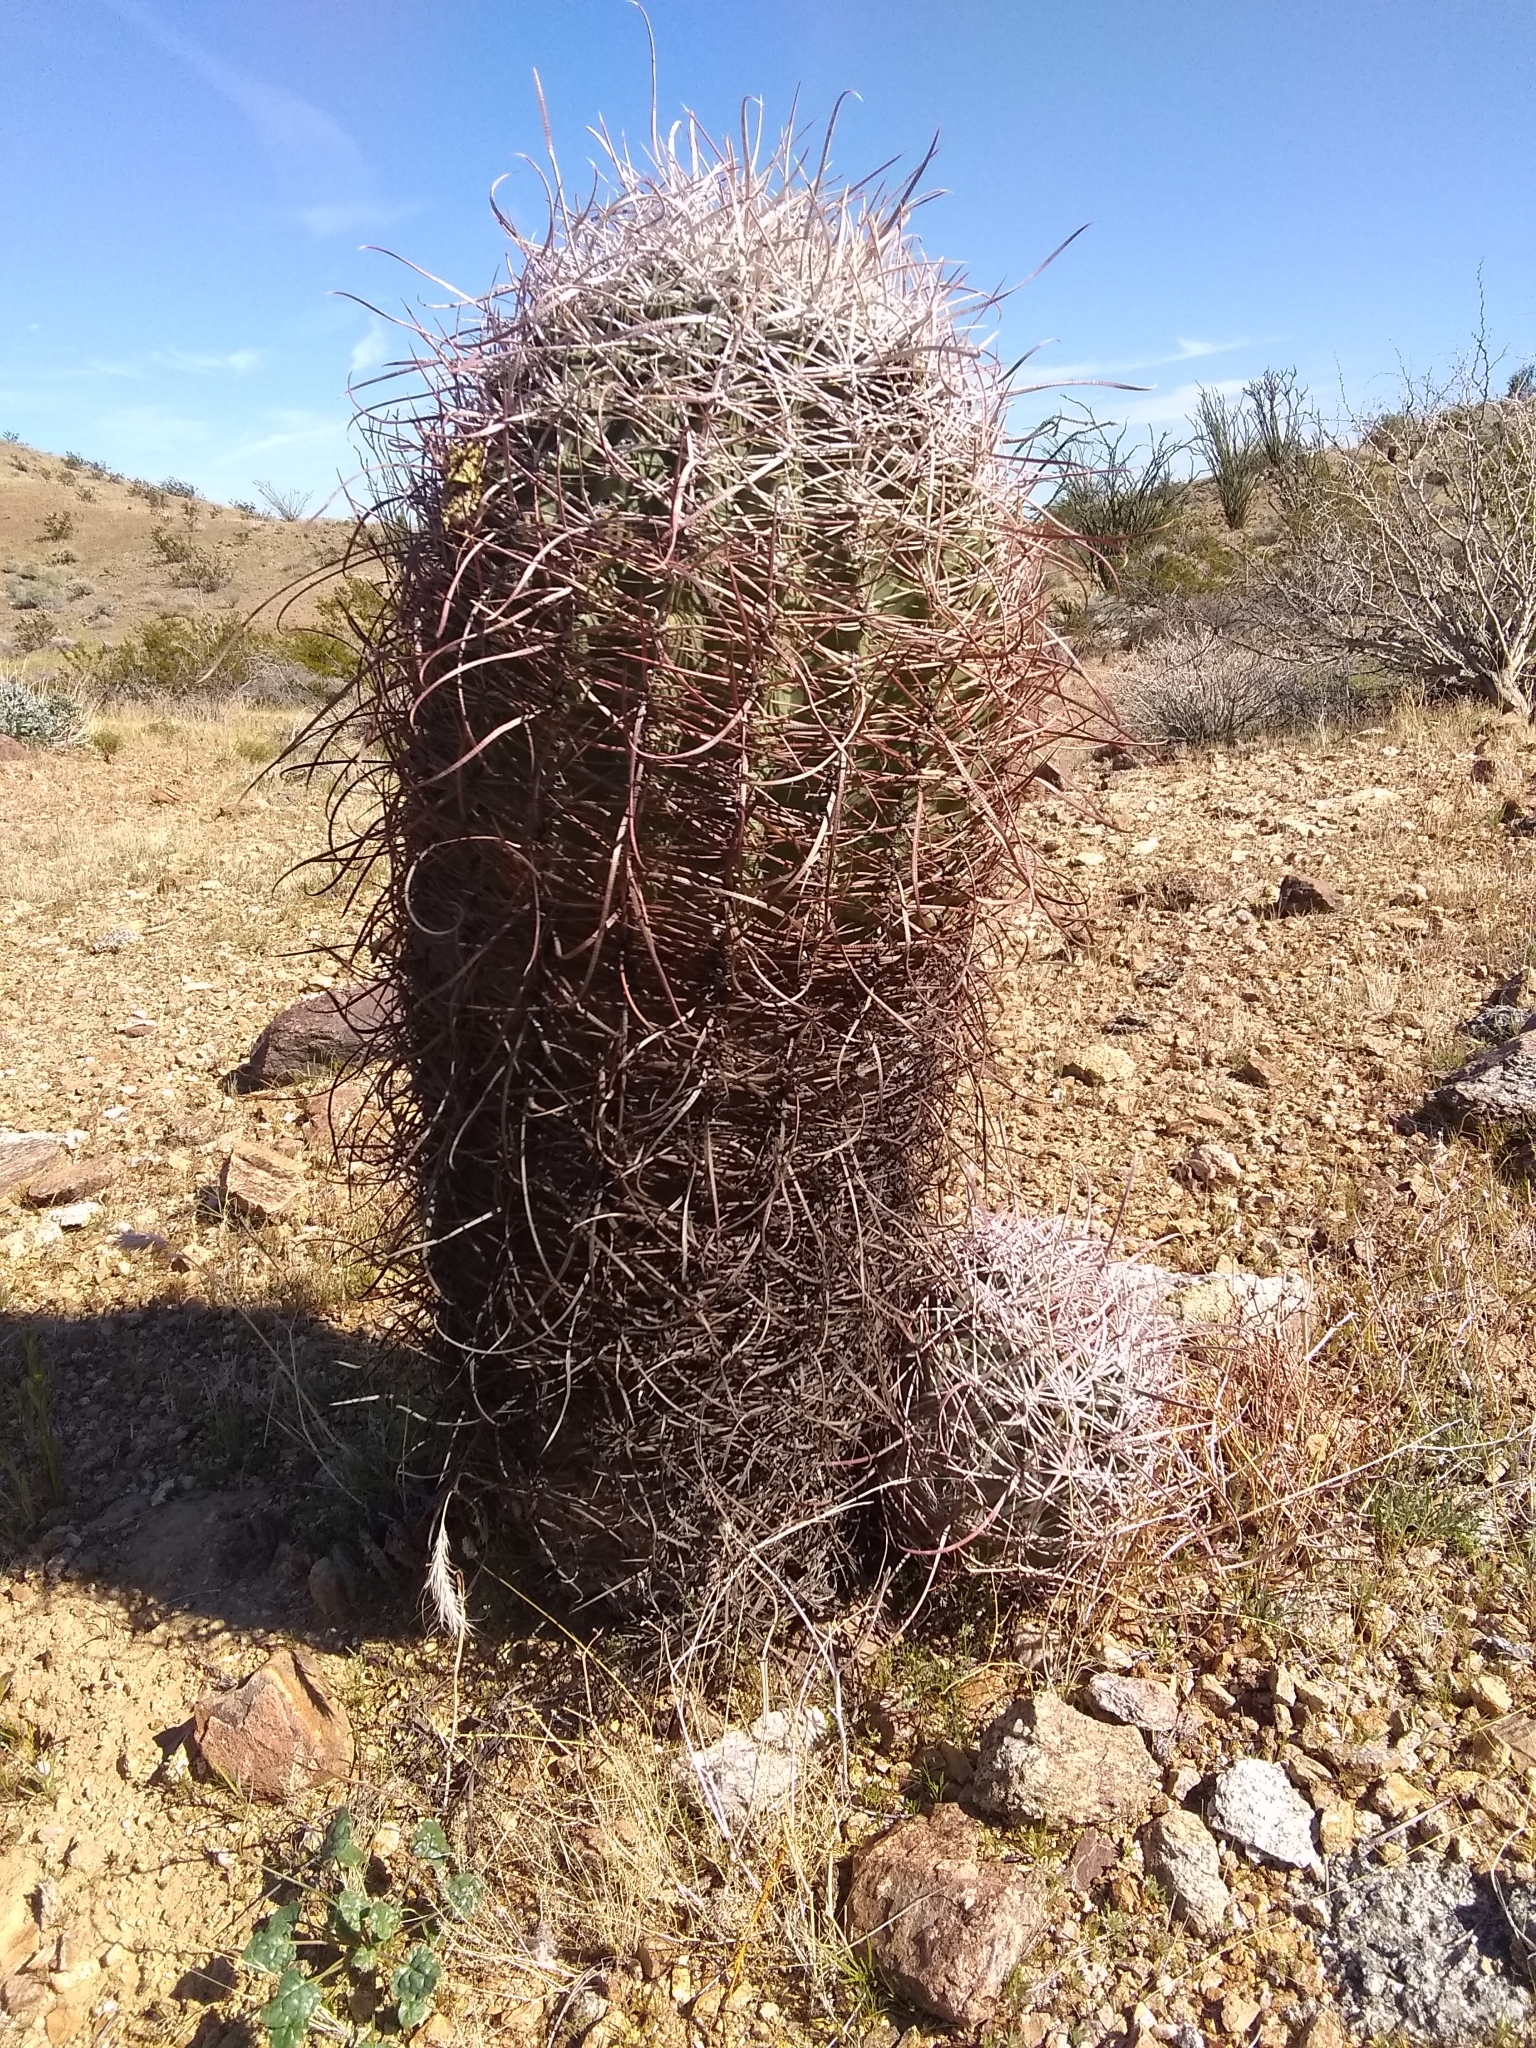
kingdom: Plantae
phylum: Tracheophyta
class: Magnoliopsida
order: Caryophyllales
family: Cactaceae
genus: Ferocactus
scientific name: Ferocactus cylindraceus
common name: California barrel cactus
